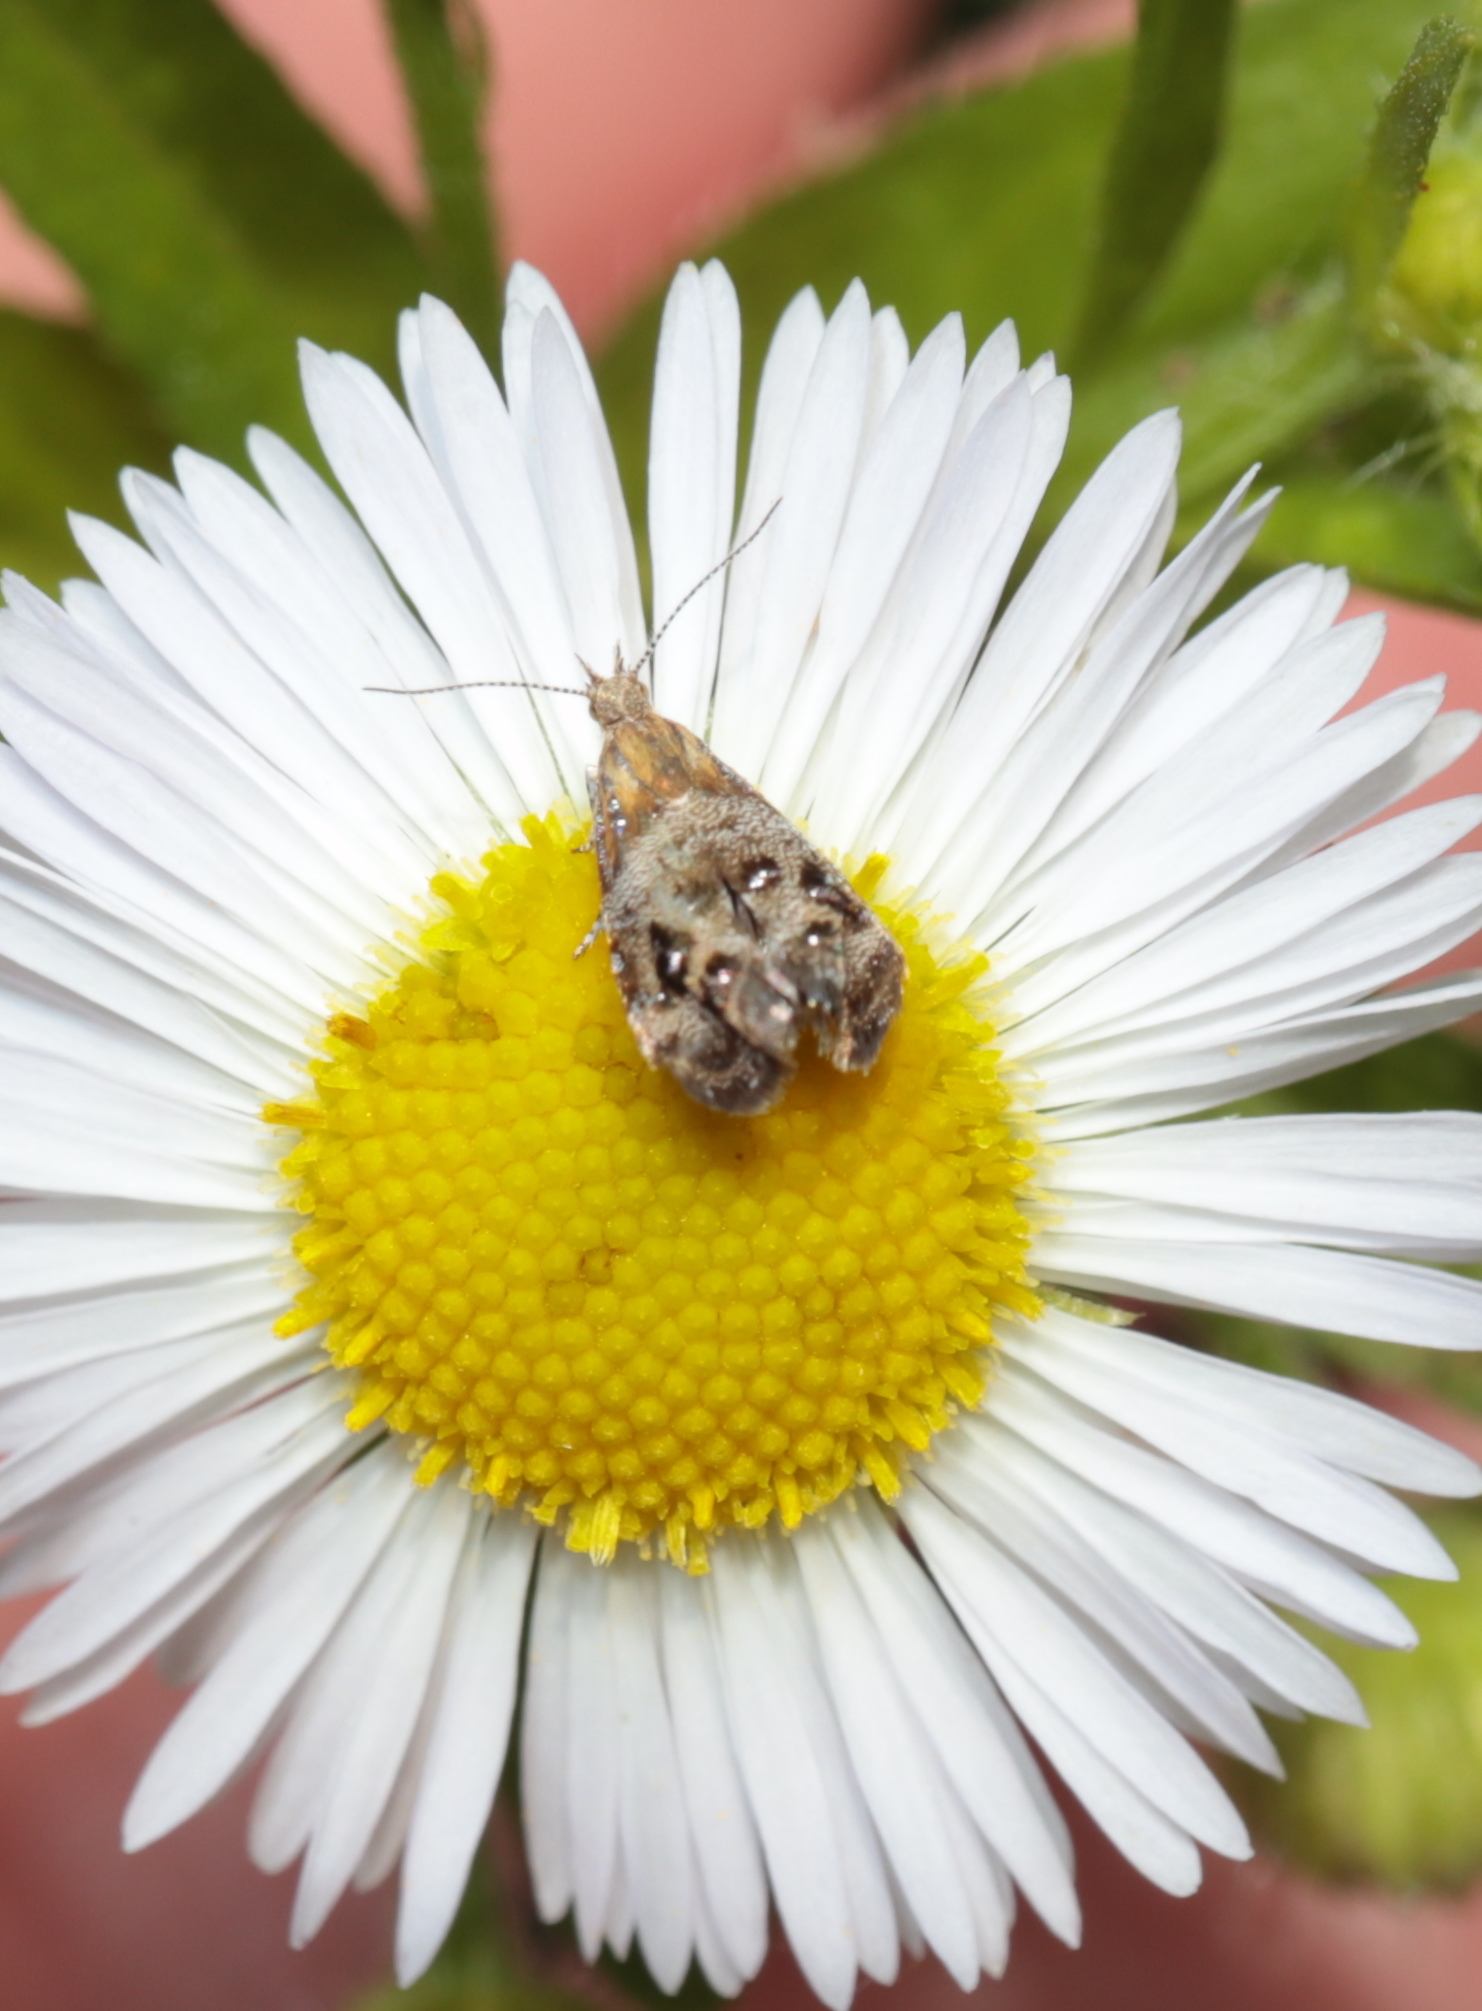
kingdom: Animalia
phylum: Arthropoda
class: Insecta
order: Lepidoptera
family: Choreutidae
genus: Tebenna
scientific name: Tebenna gnaphaliella
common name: Everlasting tebenna moth
